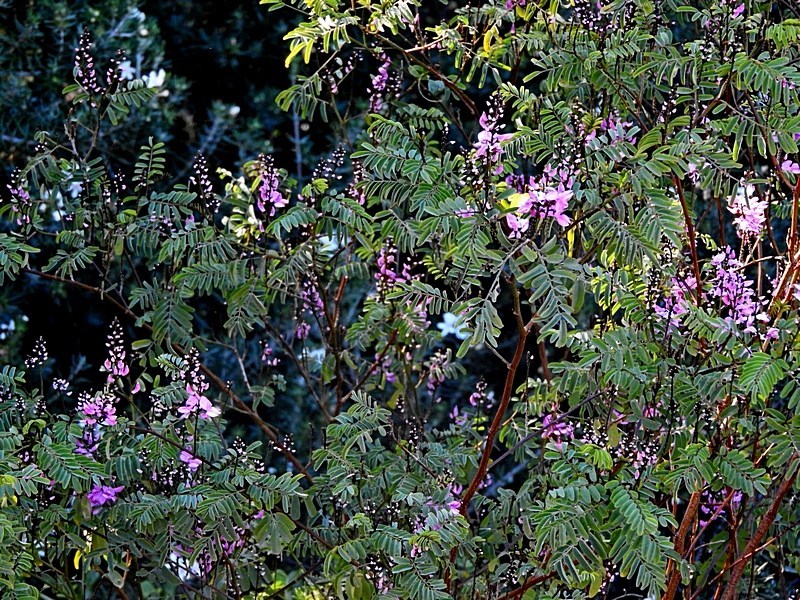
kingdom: Plantae
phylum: Tracheophyta
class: Magnoliopsida
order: Fabales
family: Fabaceae
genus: Indigofera
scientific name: Indigofera australis
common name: Australian indigo
